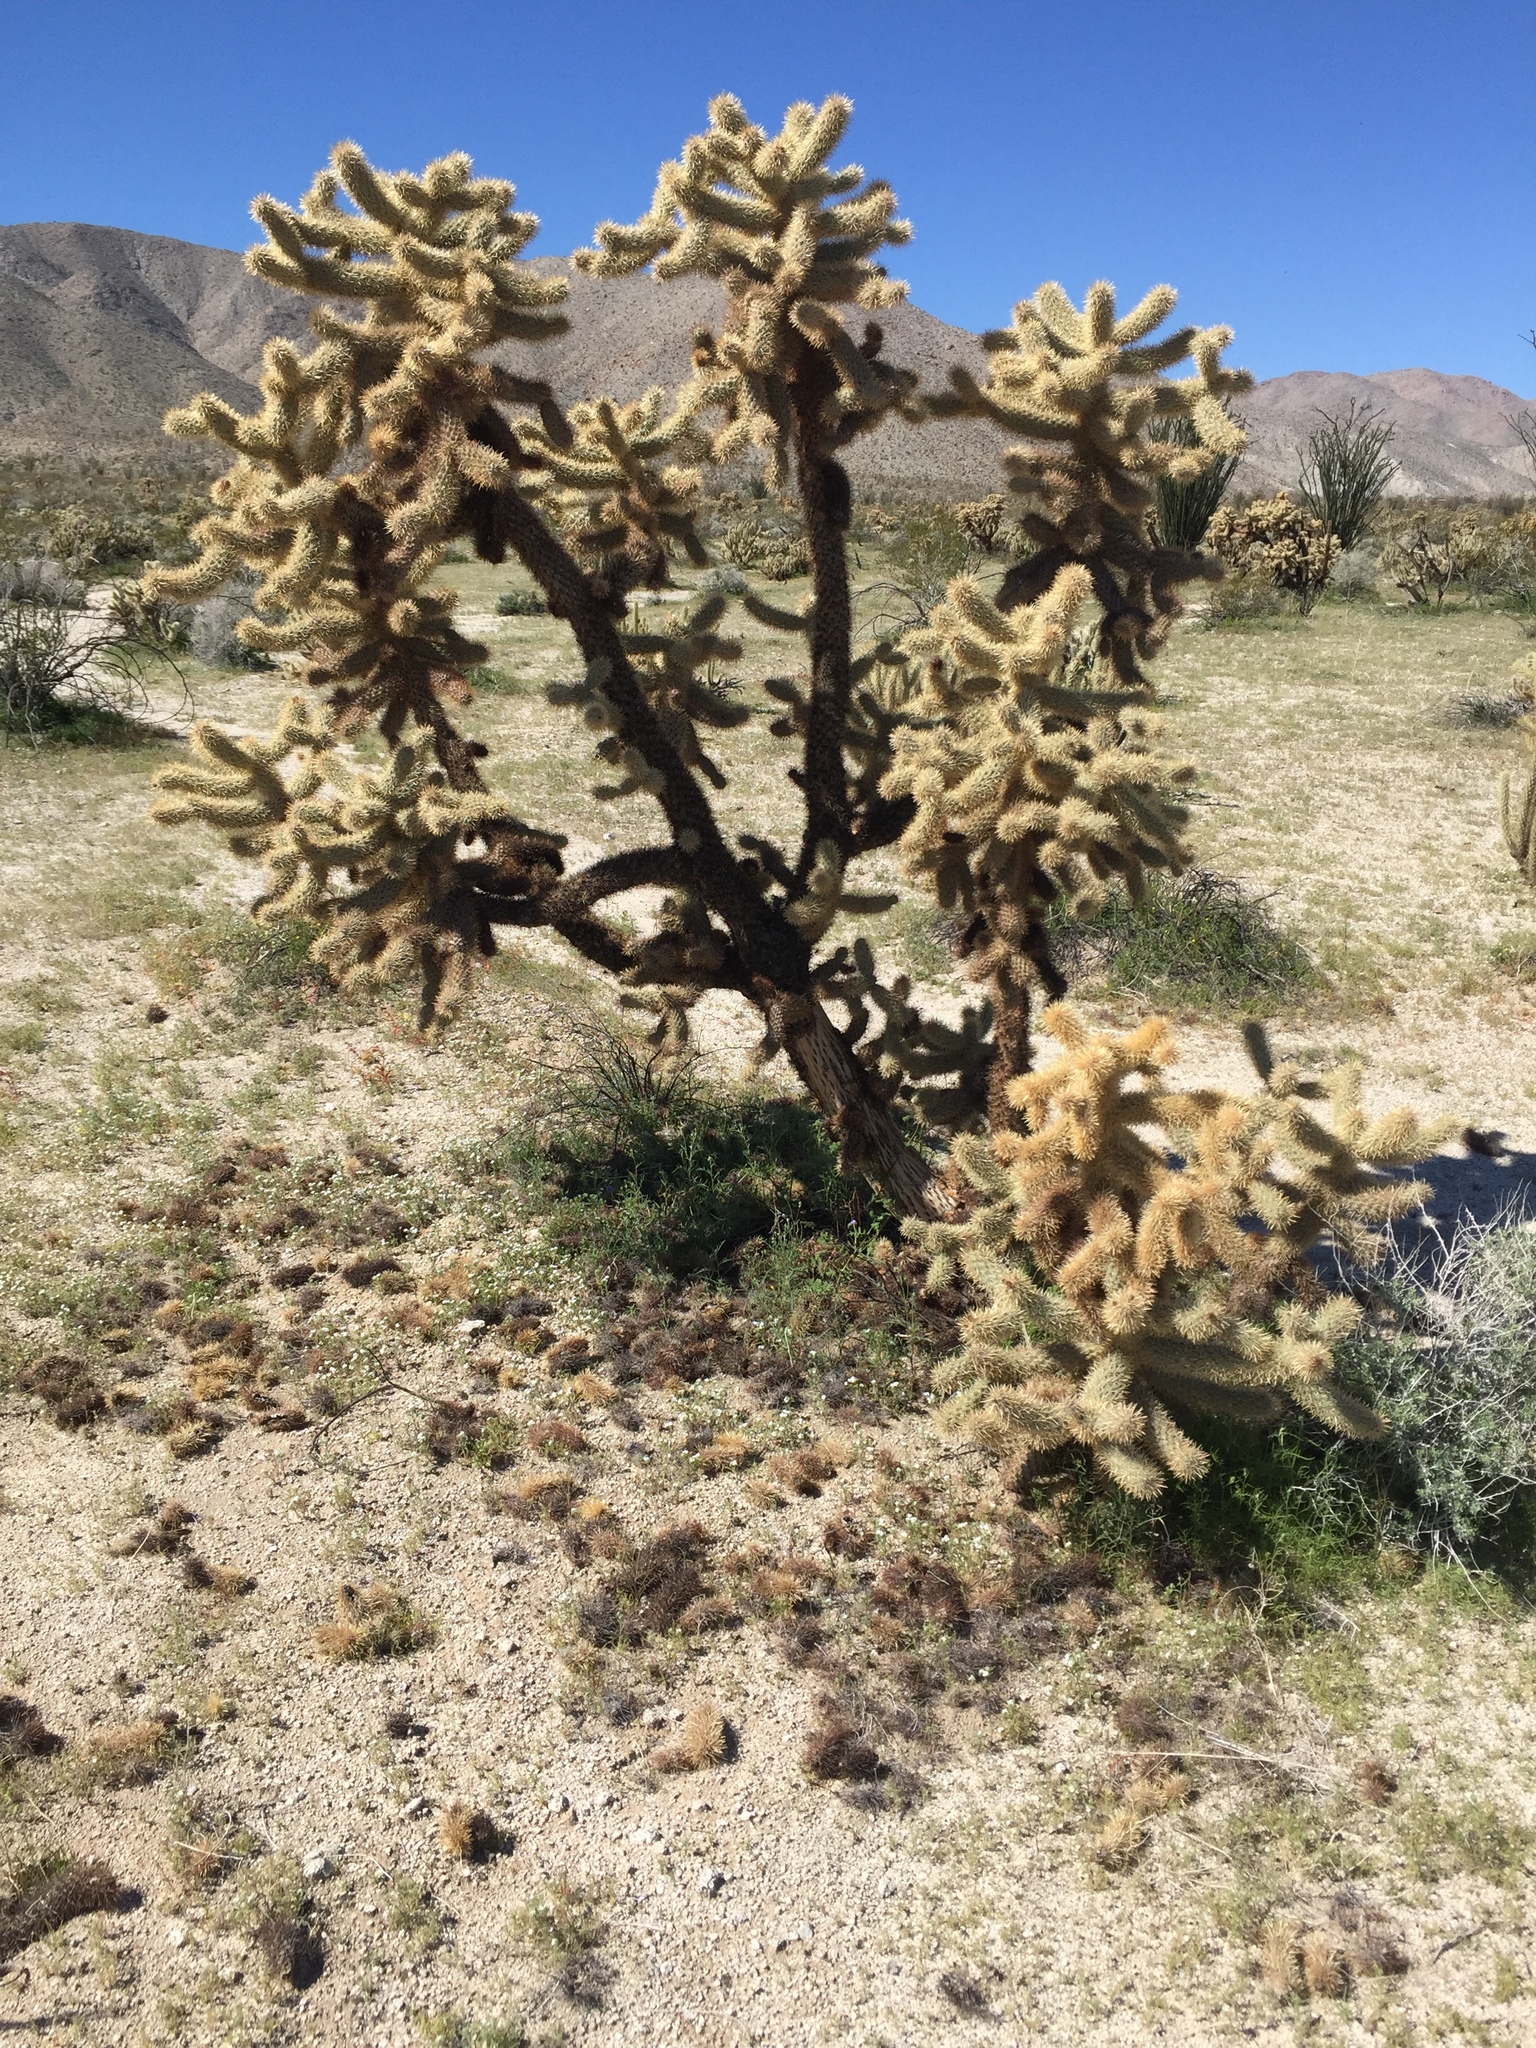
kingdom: Plantae
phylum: Tracheophyta
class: Magnoliopsida
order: Caryophyllales
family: Cactaceae
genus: Cylindropuntia
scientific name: Cylindropuntia fosbergii
